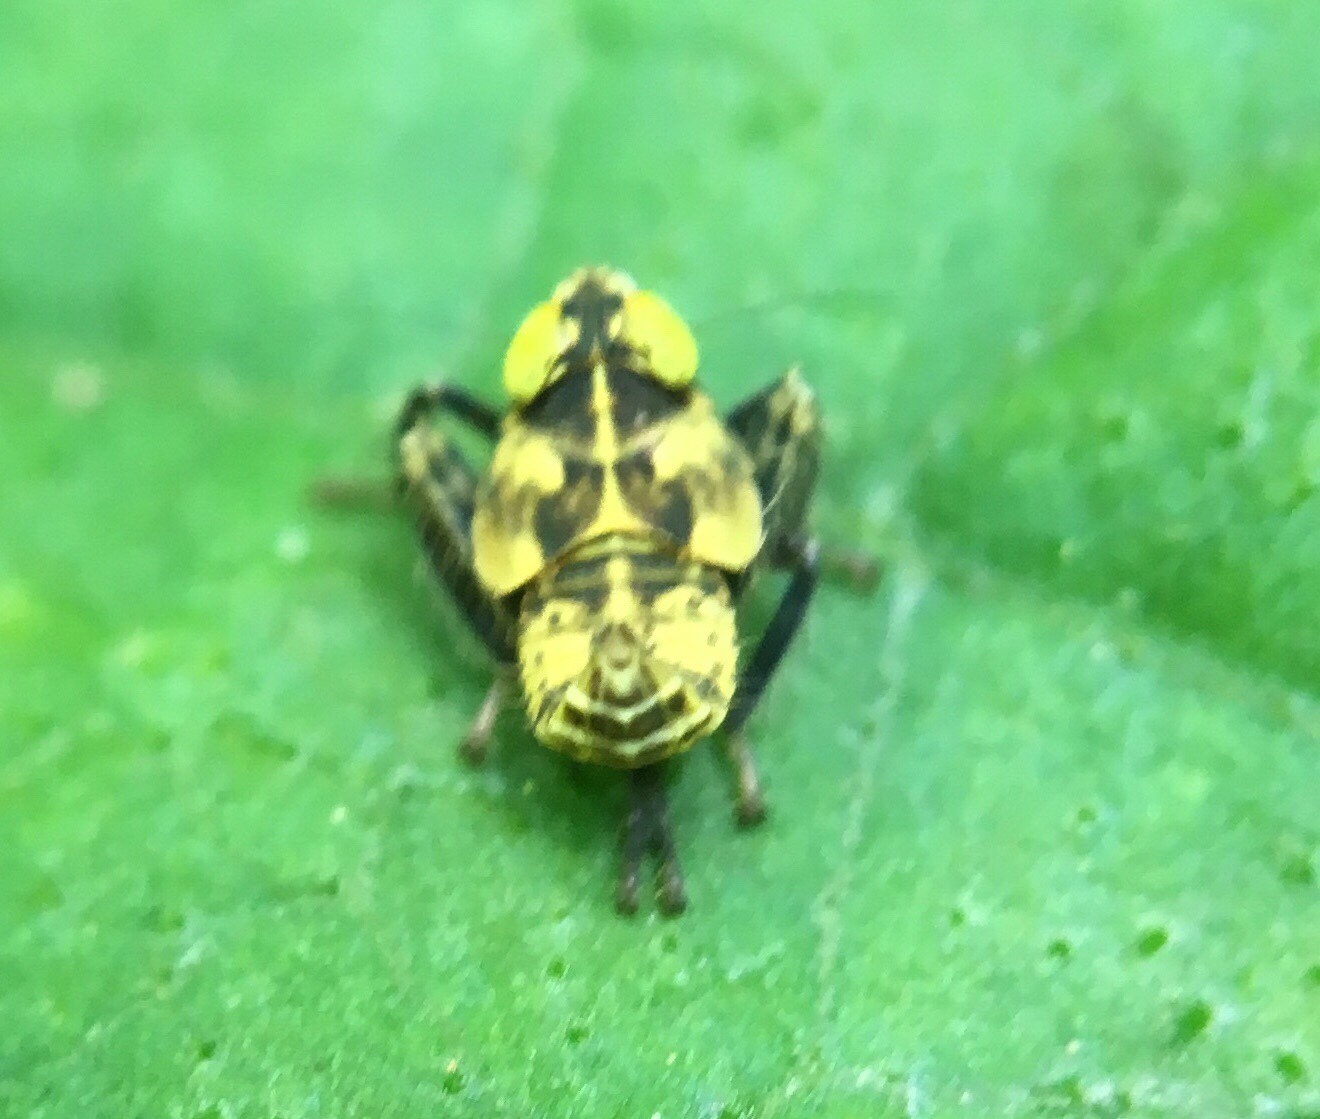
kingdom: Animalia
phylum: Arthropoda
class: Insecta
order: Hemiptera
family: Cicadellidae
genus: Jikradia
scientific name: Jikradia olitoria
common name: Coppery leafhopper
